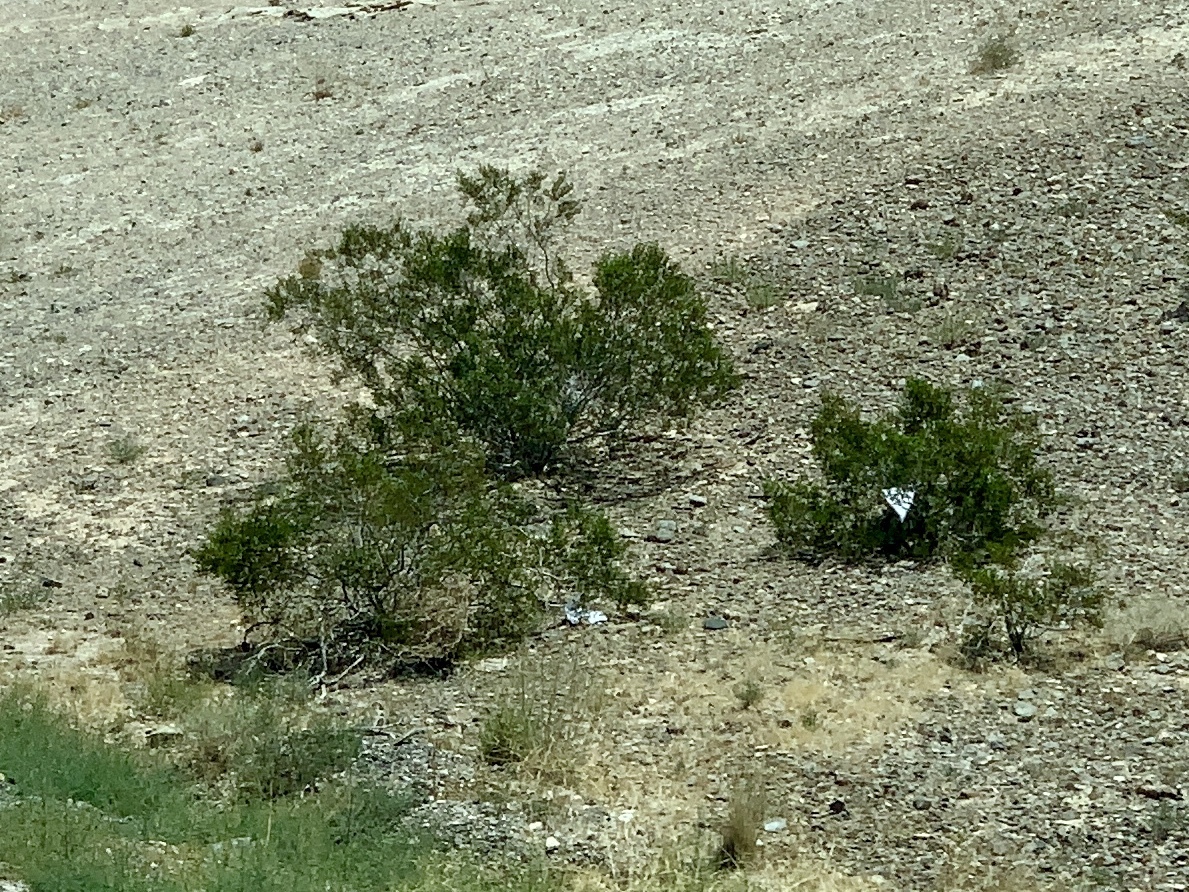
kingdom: Plantae
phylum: Tracheophyta
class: Magnoliopsida
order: Zygophyllales
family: Zygophyllaceae
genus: Larrea
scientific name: Larrea tridentata
